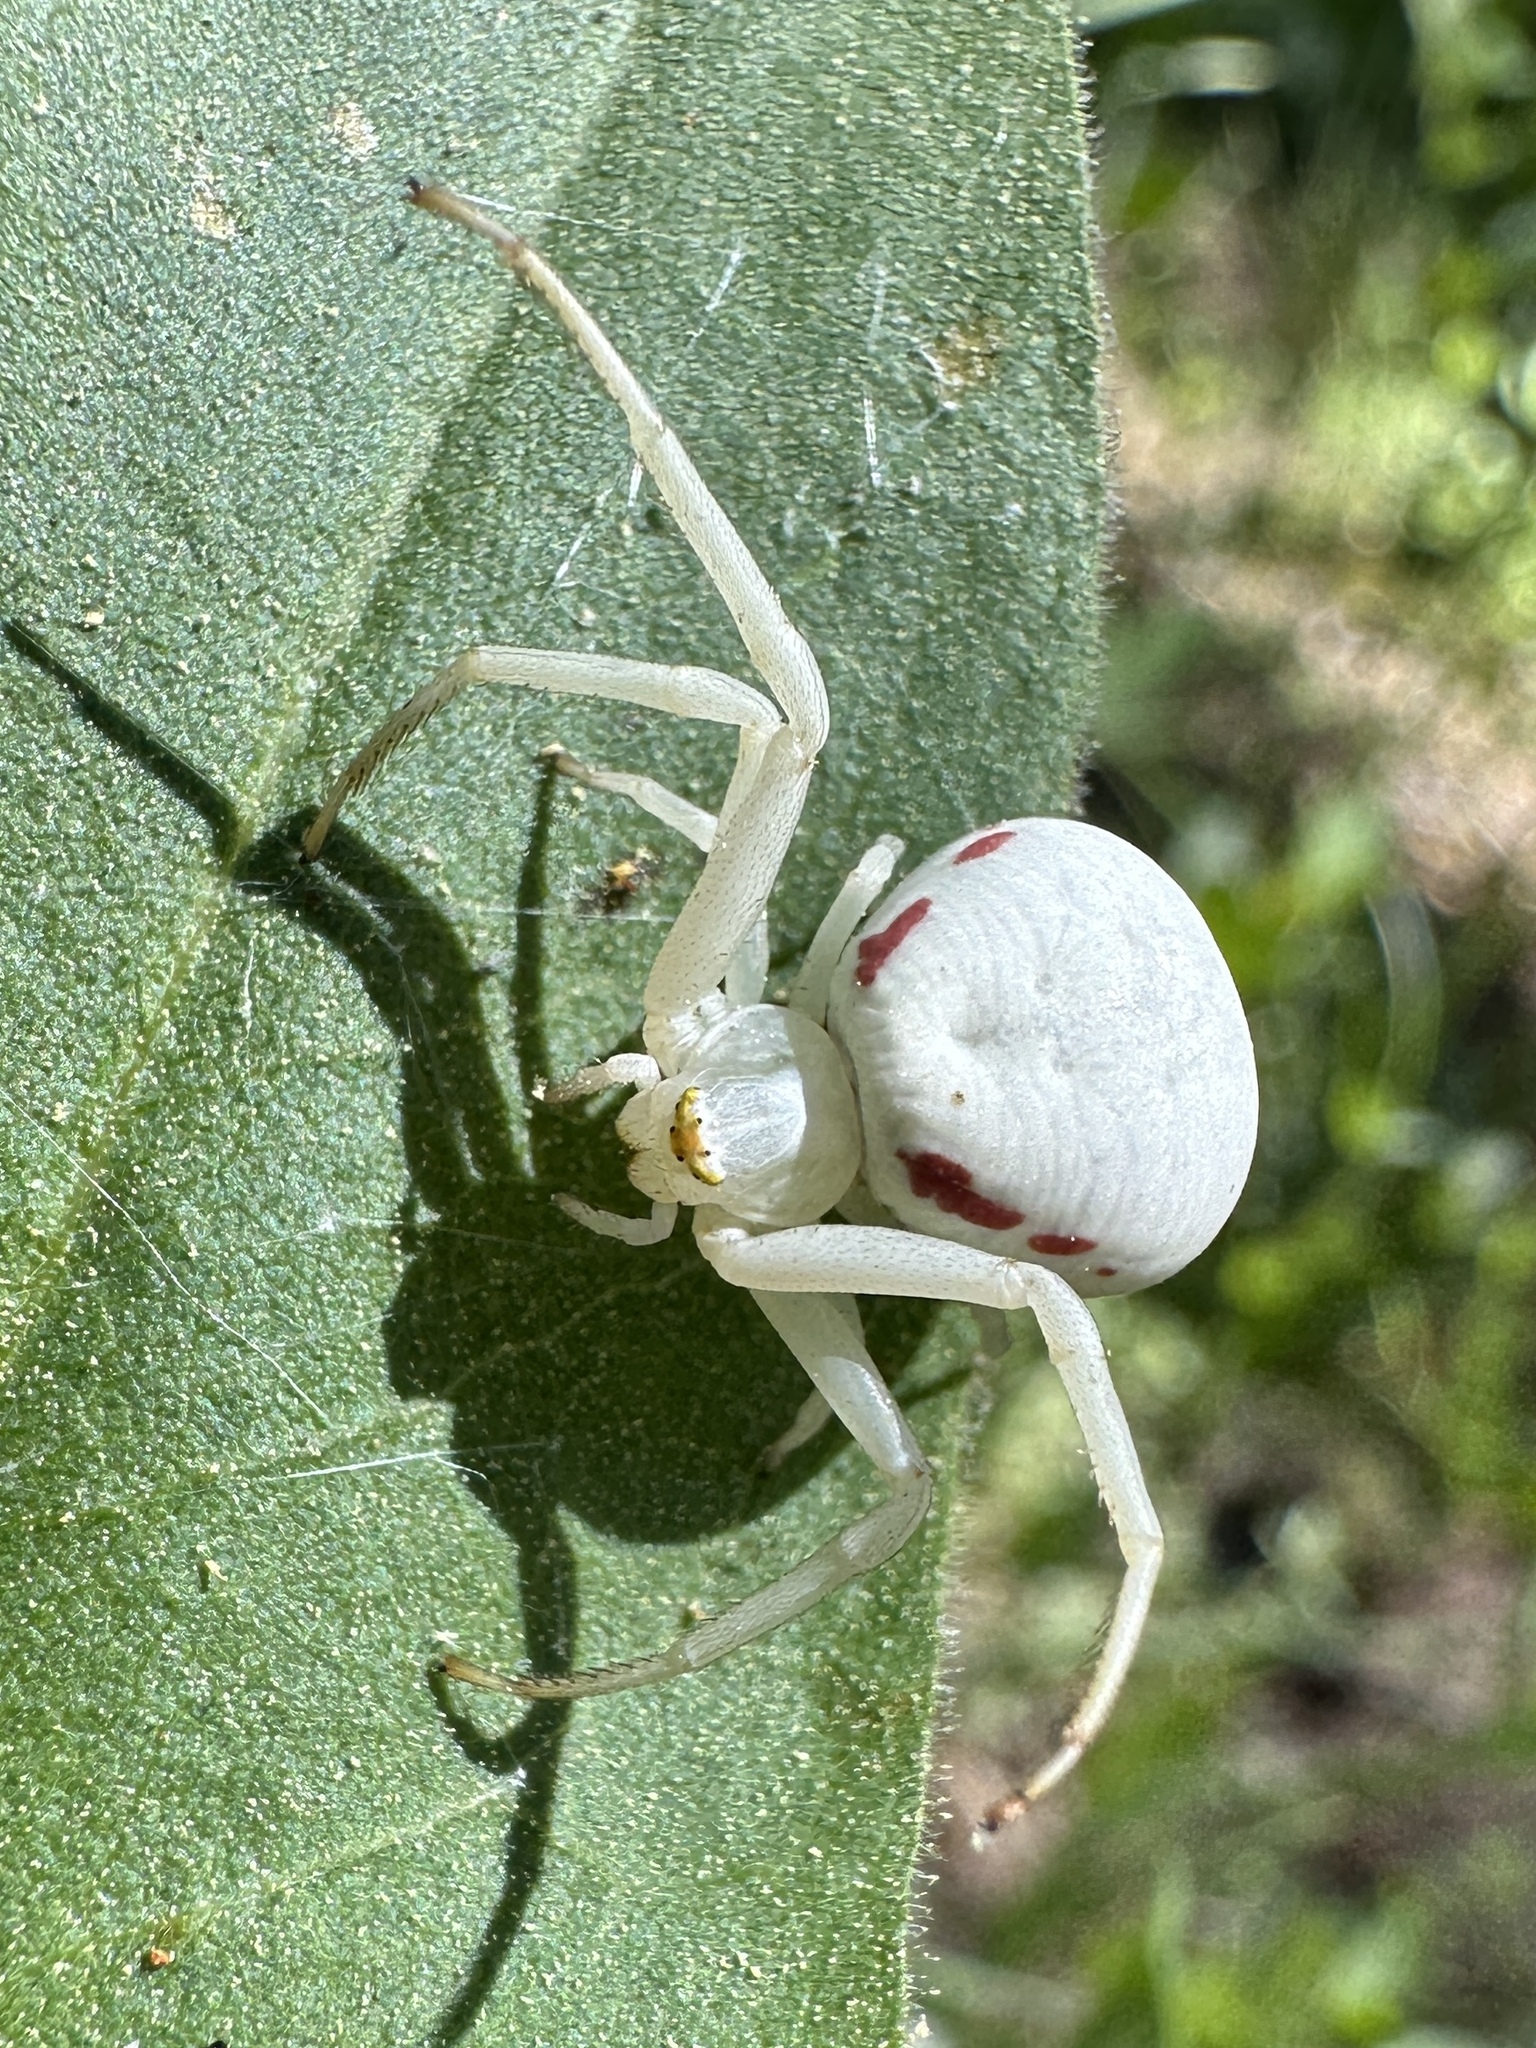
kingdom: Animalia
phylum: Arthropoda
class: Arachnida
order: Araneae
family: Thomisidae
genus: Misumena
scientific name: Misumena vatia
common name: Goldenrod crab spider
